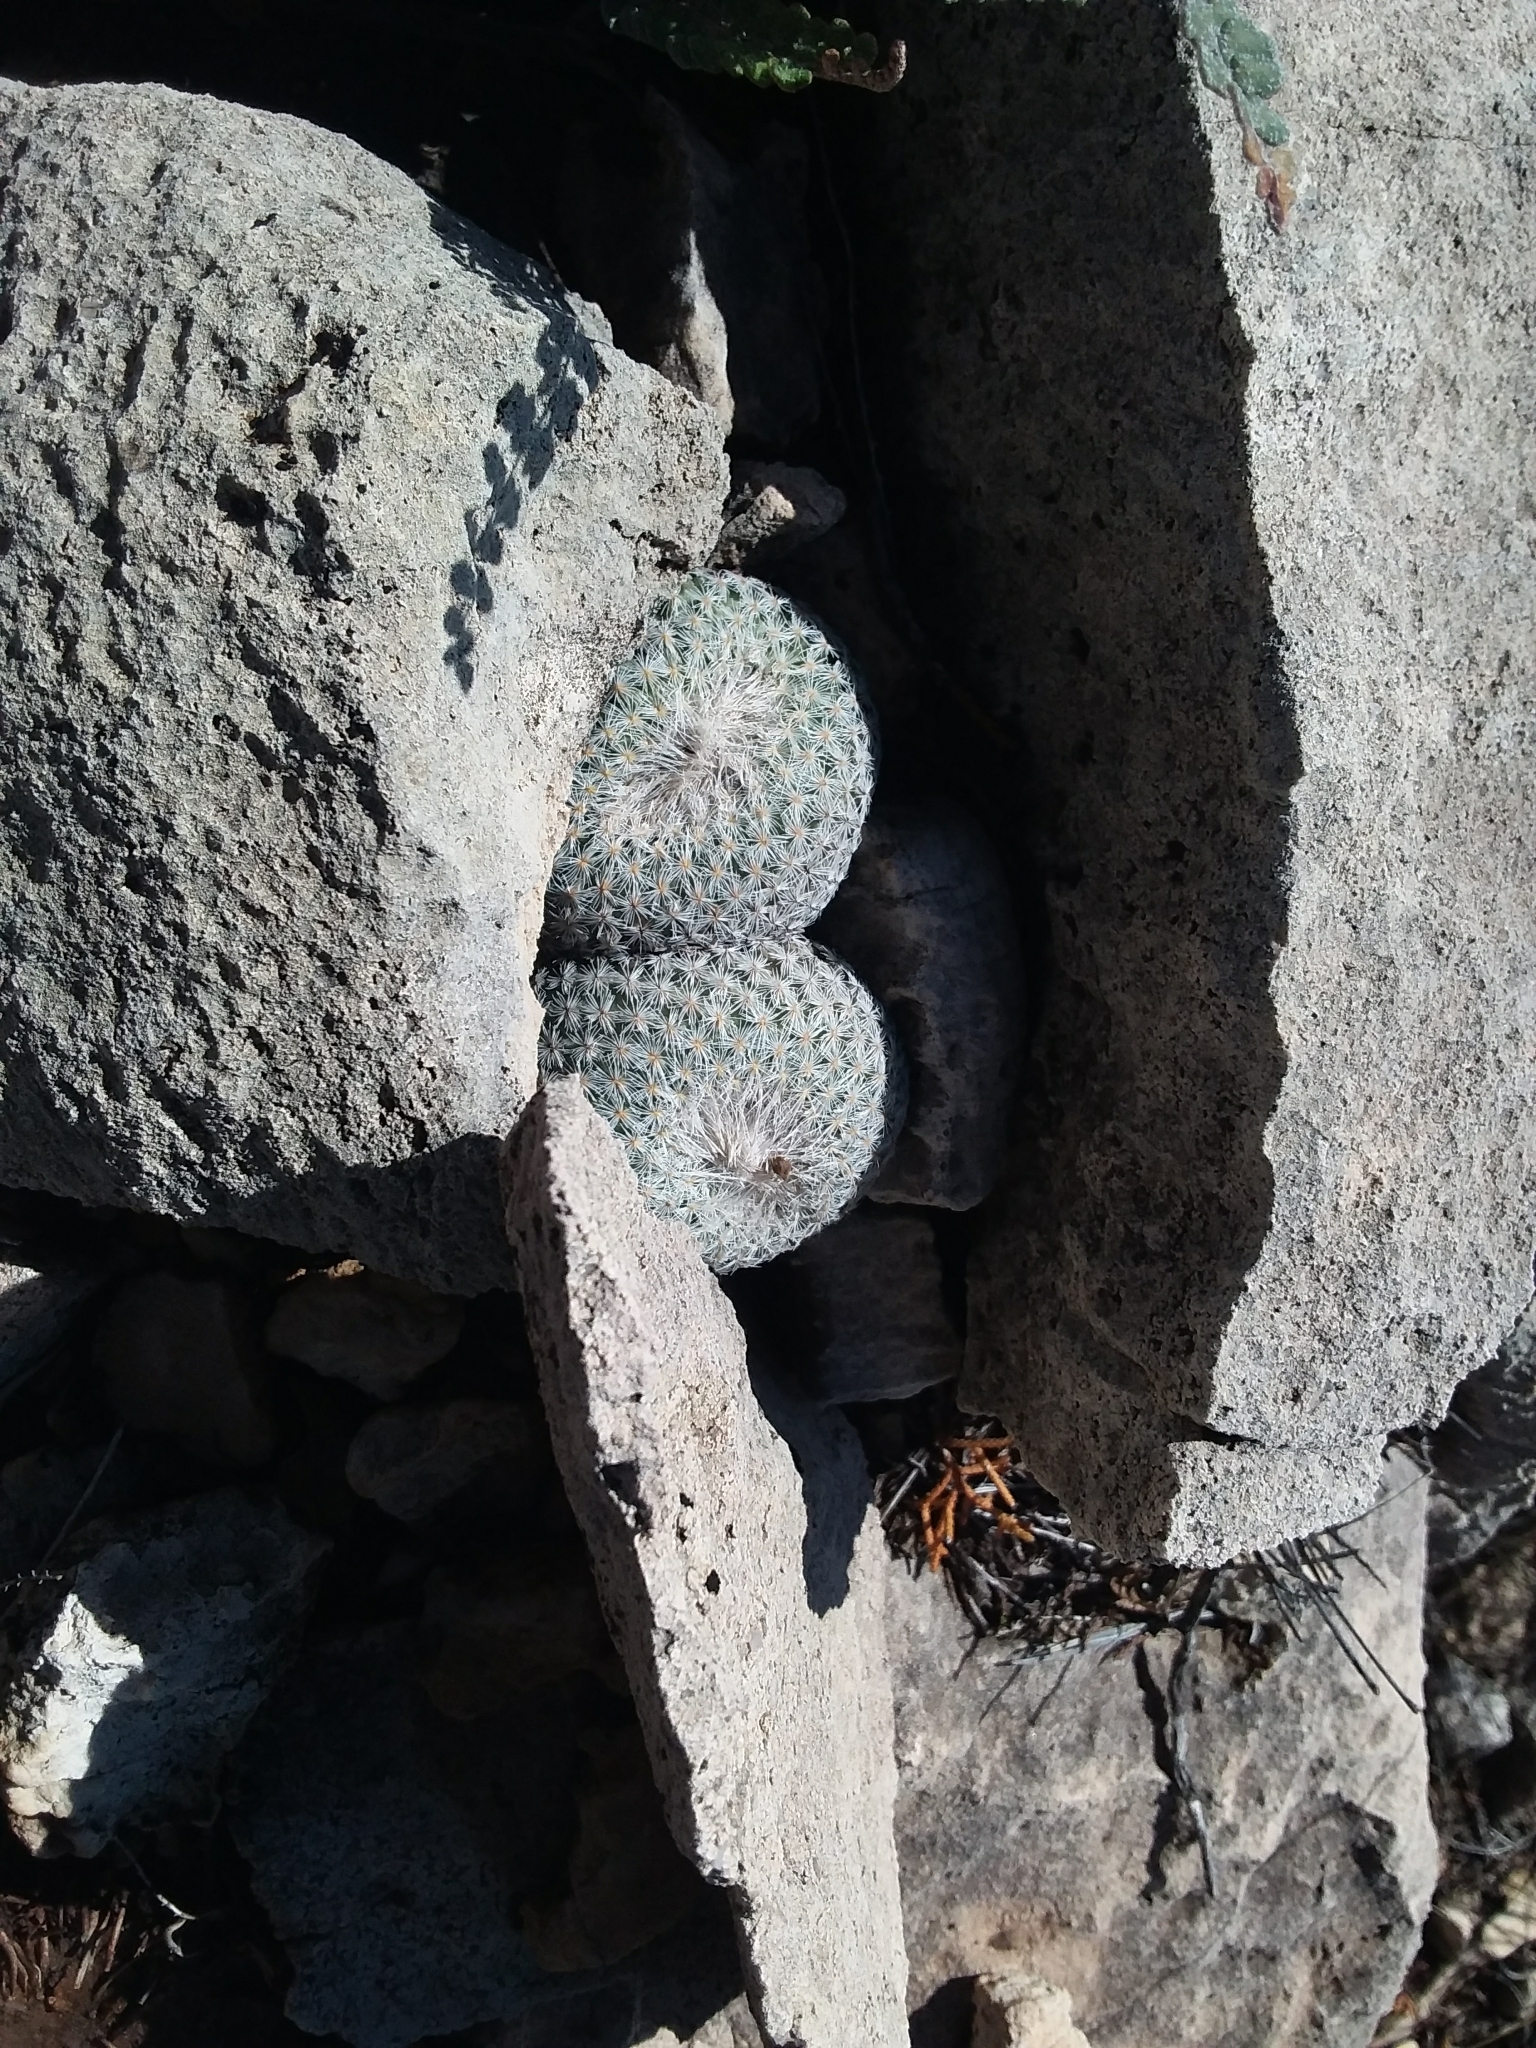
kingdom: Plantae
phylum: Tracheophyta
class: Magnoliopsida
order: Caryophyllales
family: Cactaceae
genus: Epithelantha
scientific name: Epithelantha micromeris
